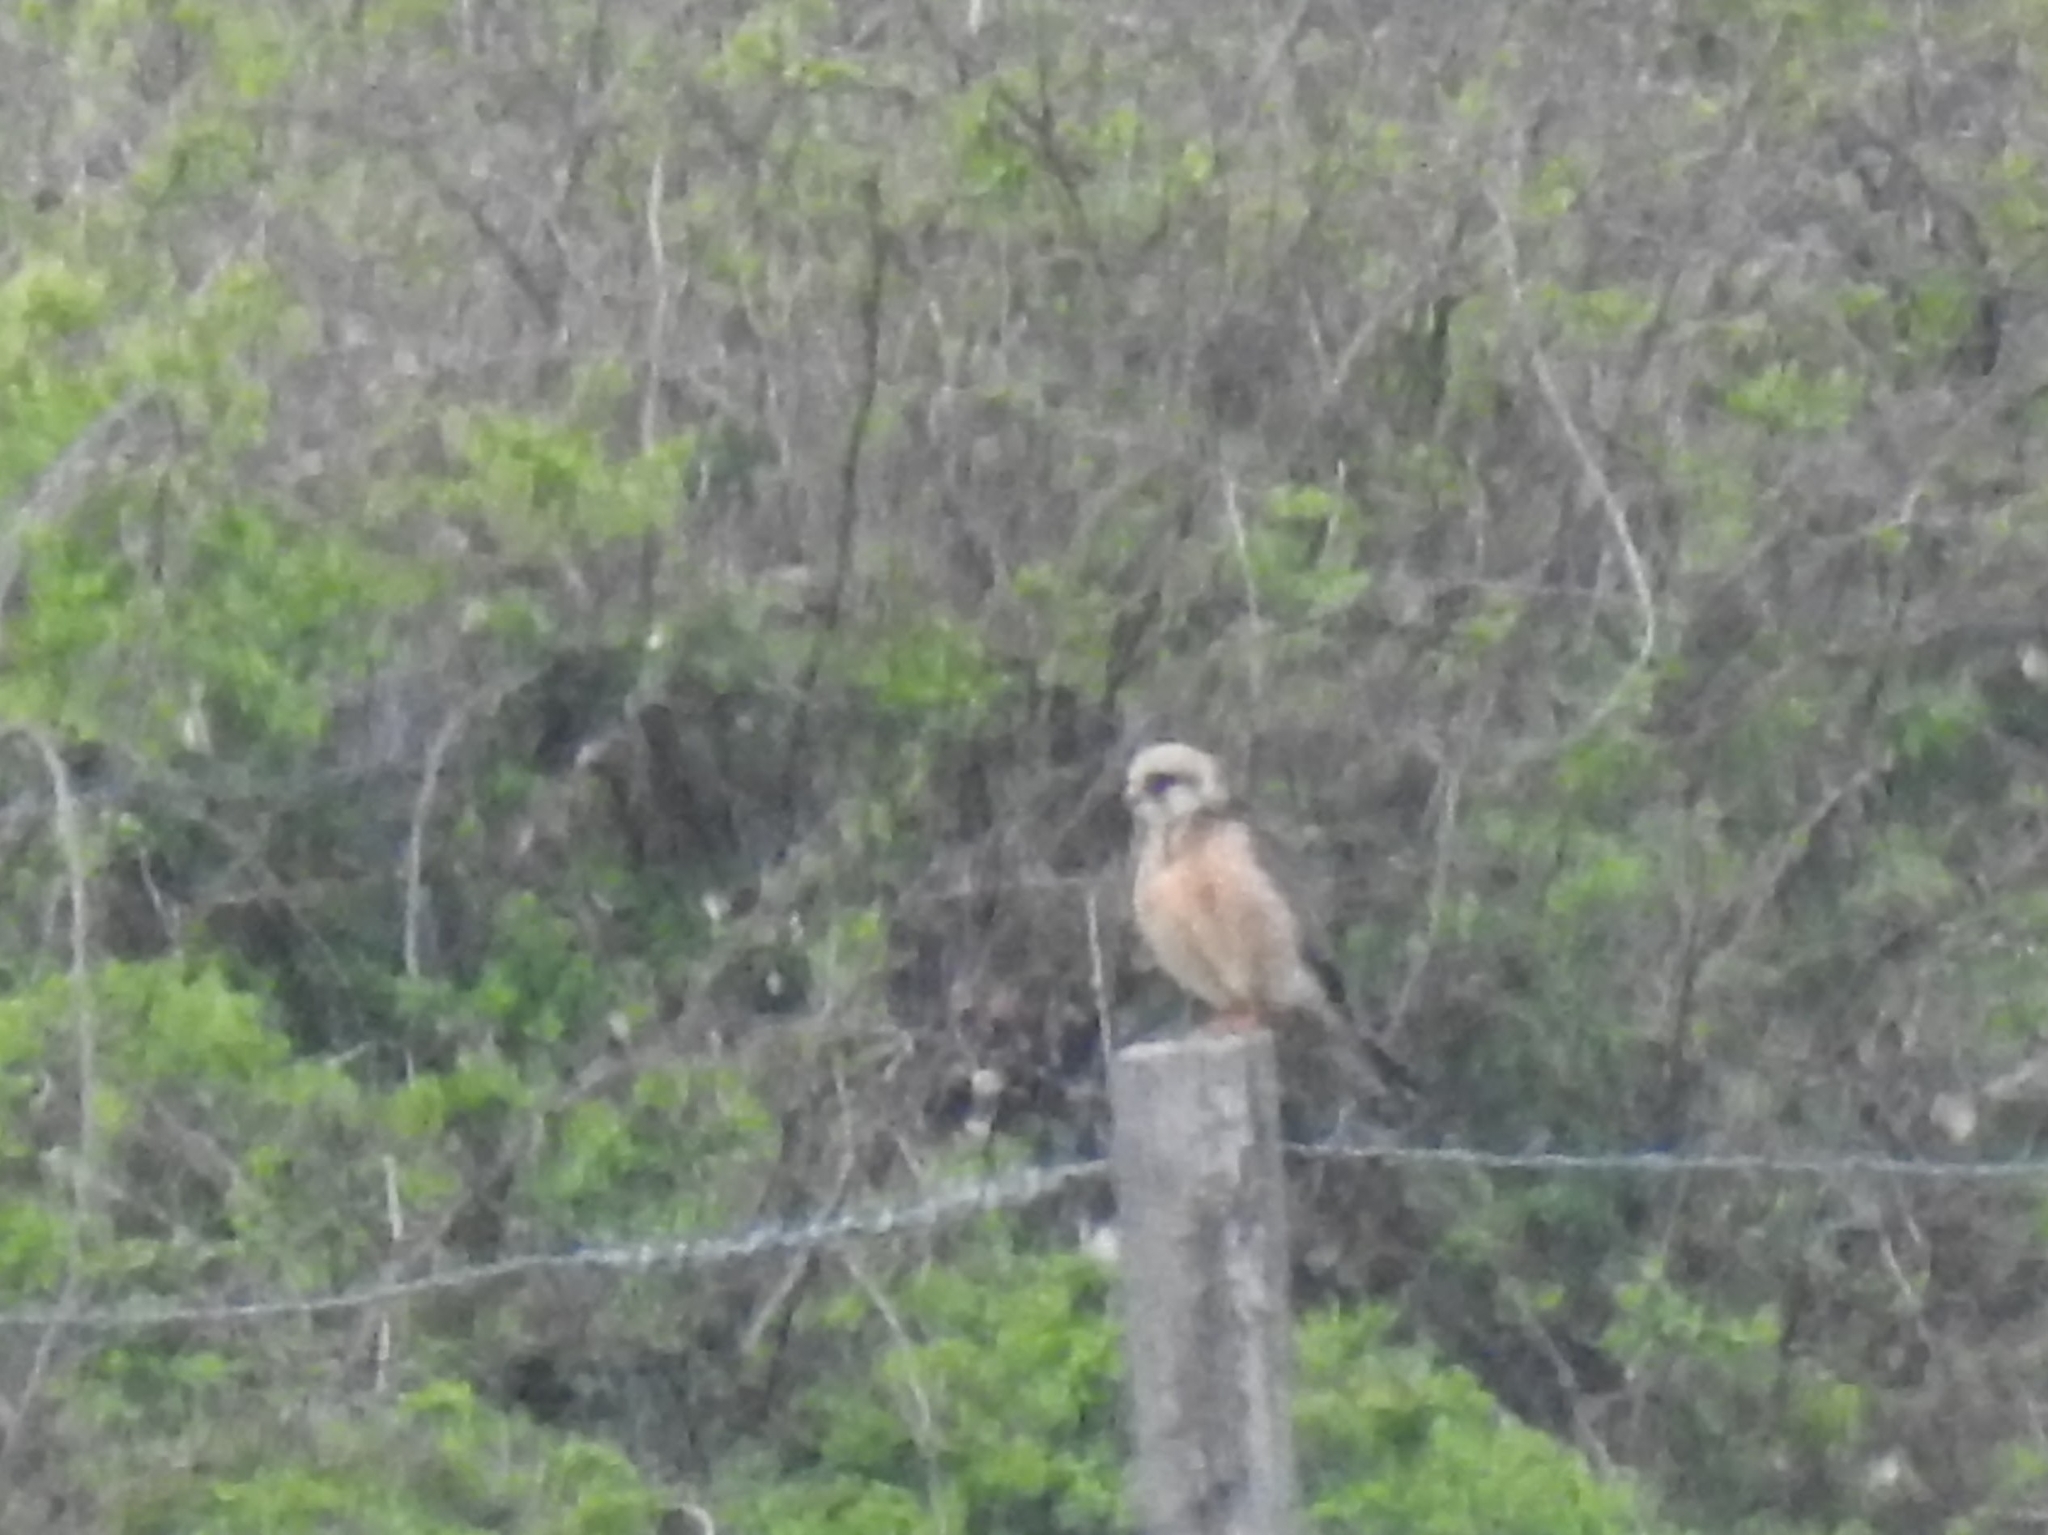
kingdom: Animalia
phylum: Chordata
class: Aves
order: Falconiformes
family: Falconidae
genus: Falco
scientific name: Falco vespertinus
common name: Red-footed falcon
